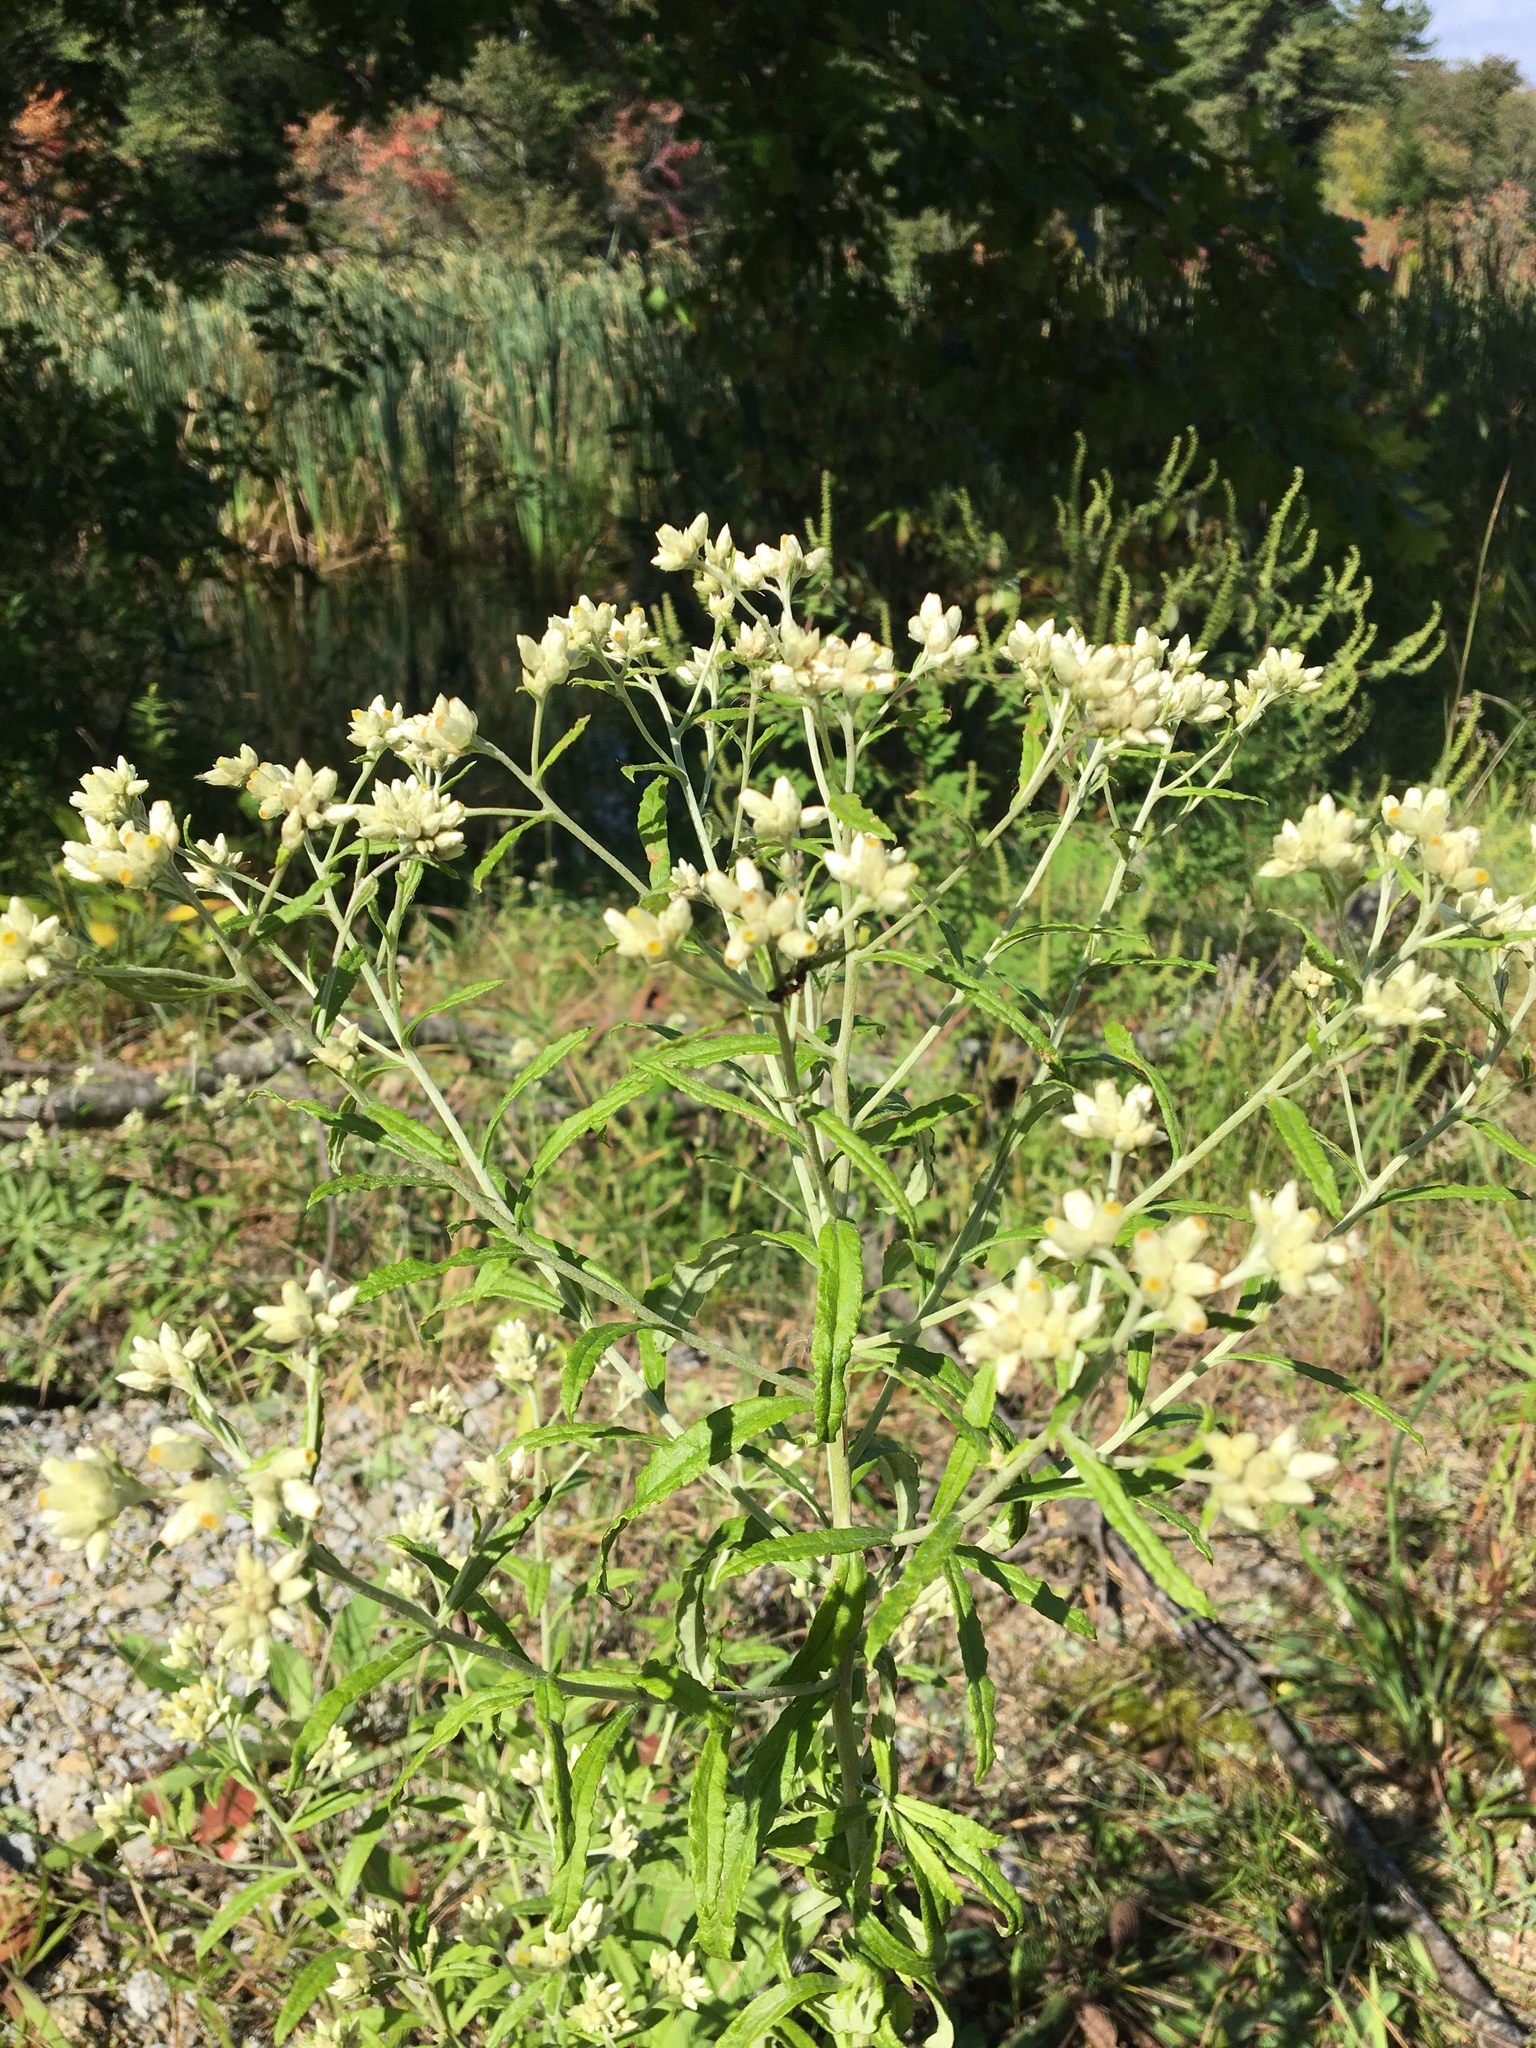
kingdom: Plantae
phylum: Tracheophyta
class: Magnoliopsida
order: Asterales
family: Asteraceae
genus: Pseudognaphalium
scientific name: Pseudognaphalium obtusifolium
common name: Eastern rabbit-tobacco
